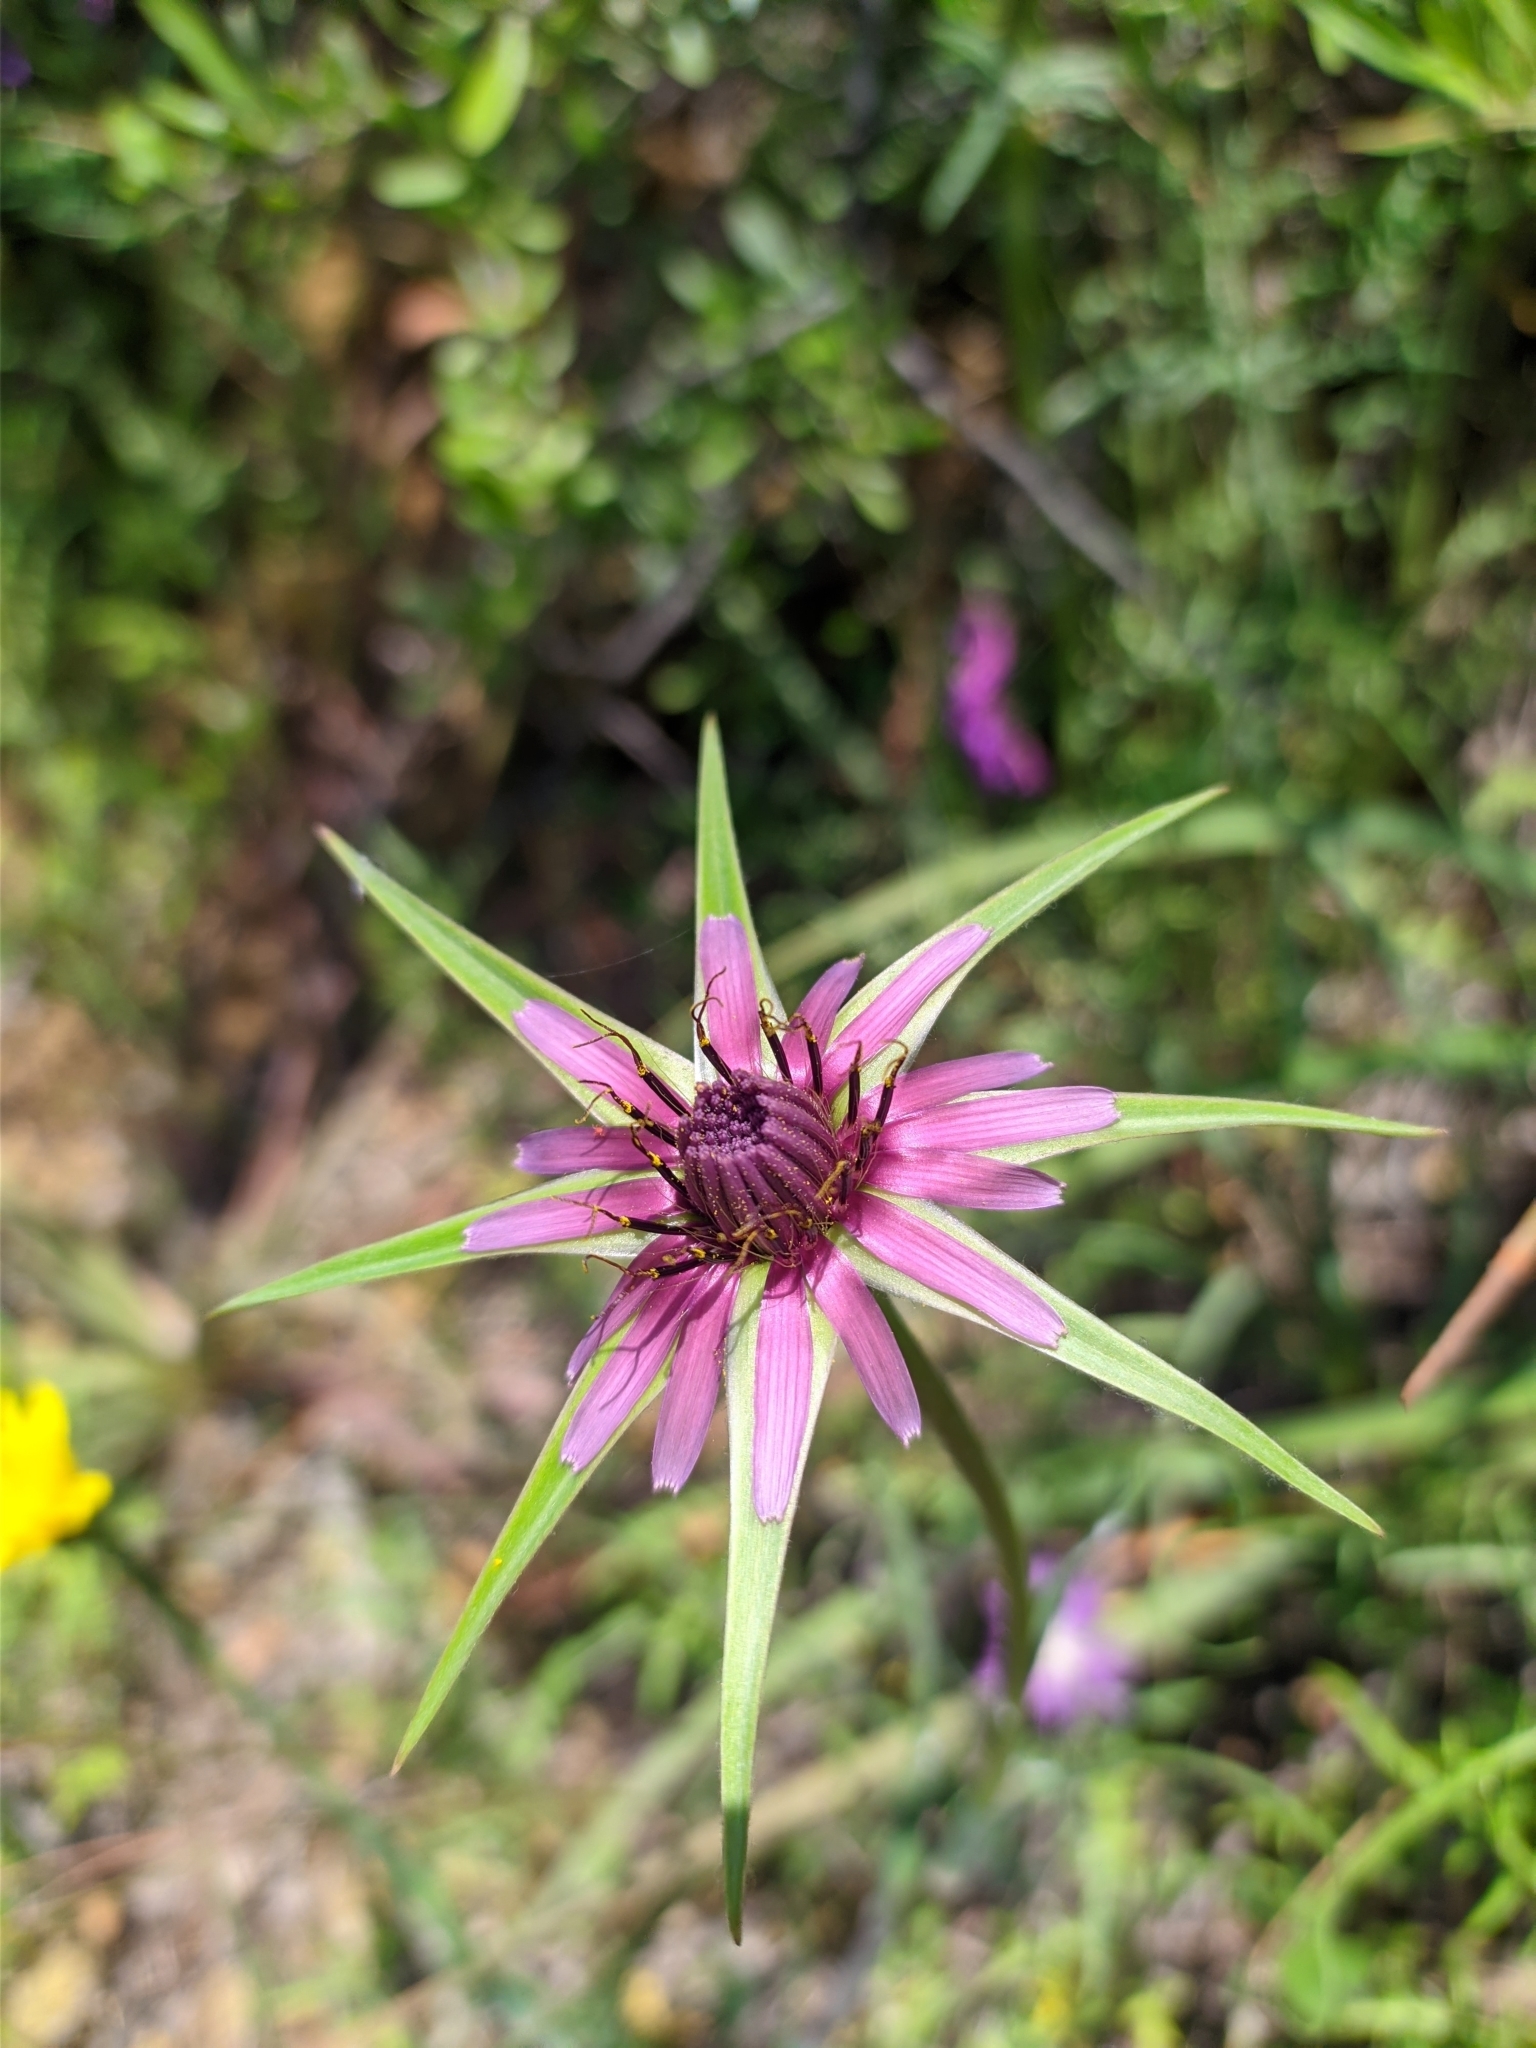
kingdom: Plantae
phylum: Tracheophyta
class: Magnoliopsida
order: Asterales
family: Asteraceae
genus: Tragopogon
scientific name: Tragopogon porrifolius
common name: Salsify
